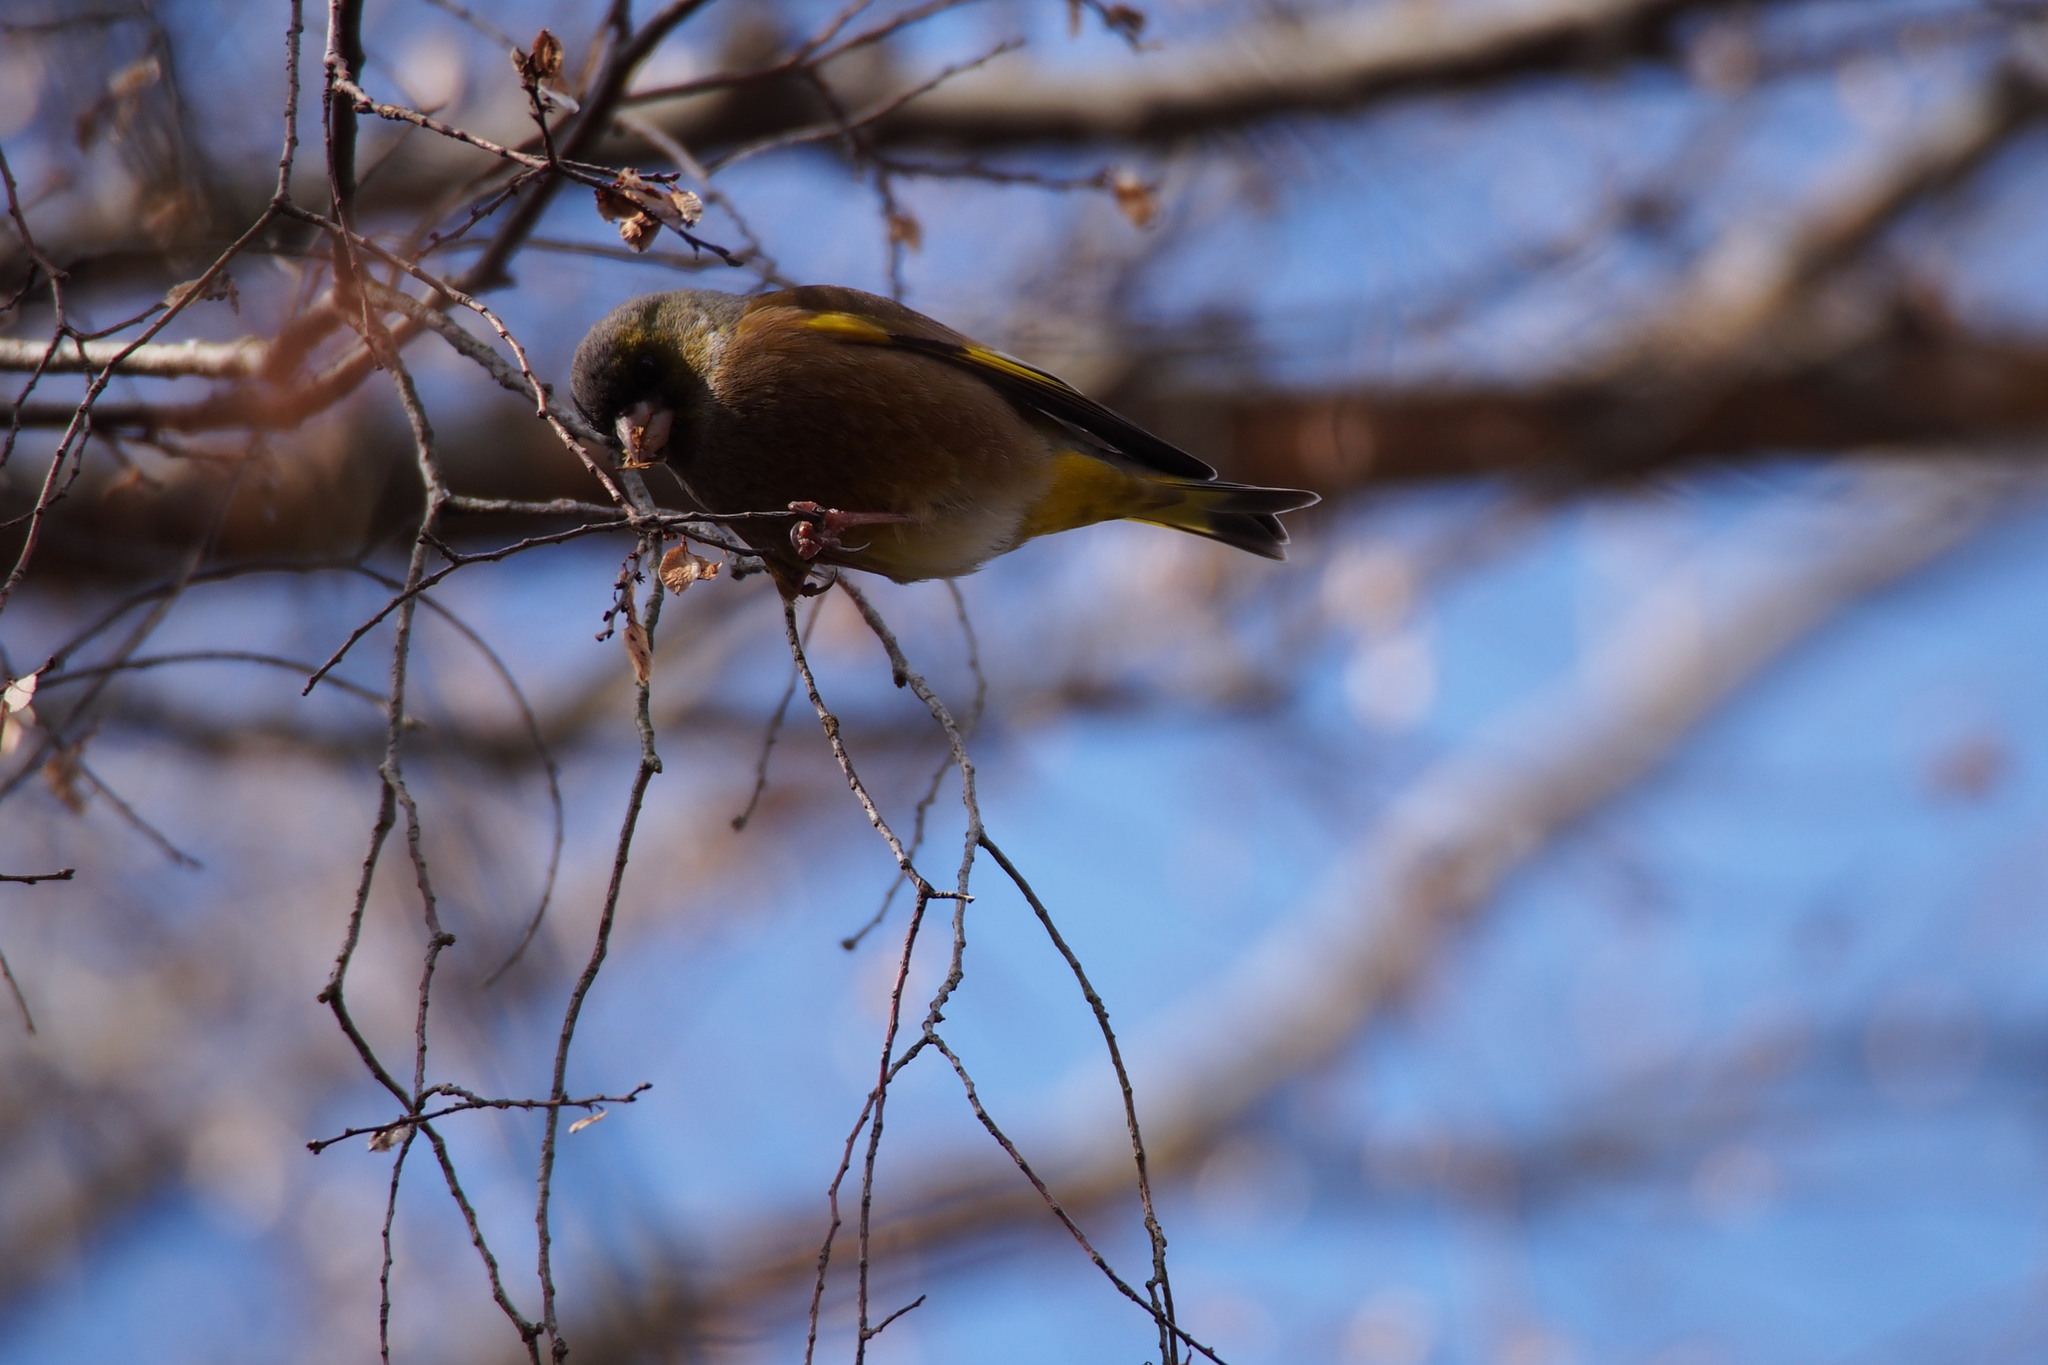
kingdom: Plantae
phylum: Tracheophyta
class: Liliopsida
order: Poales
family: Poaceae
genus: Chloris
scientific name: Chloris sinica
